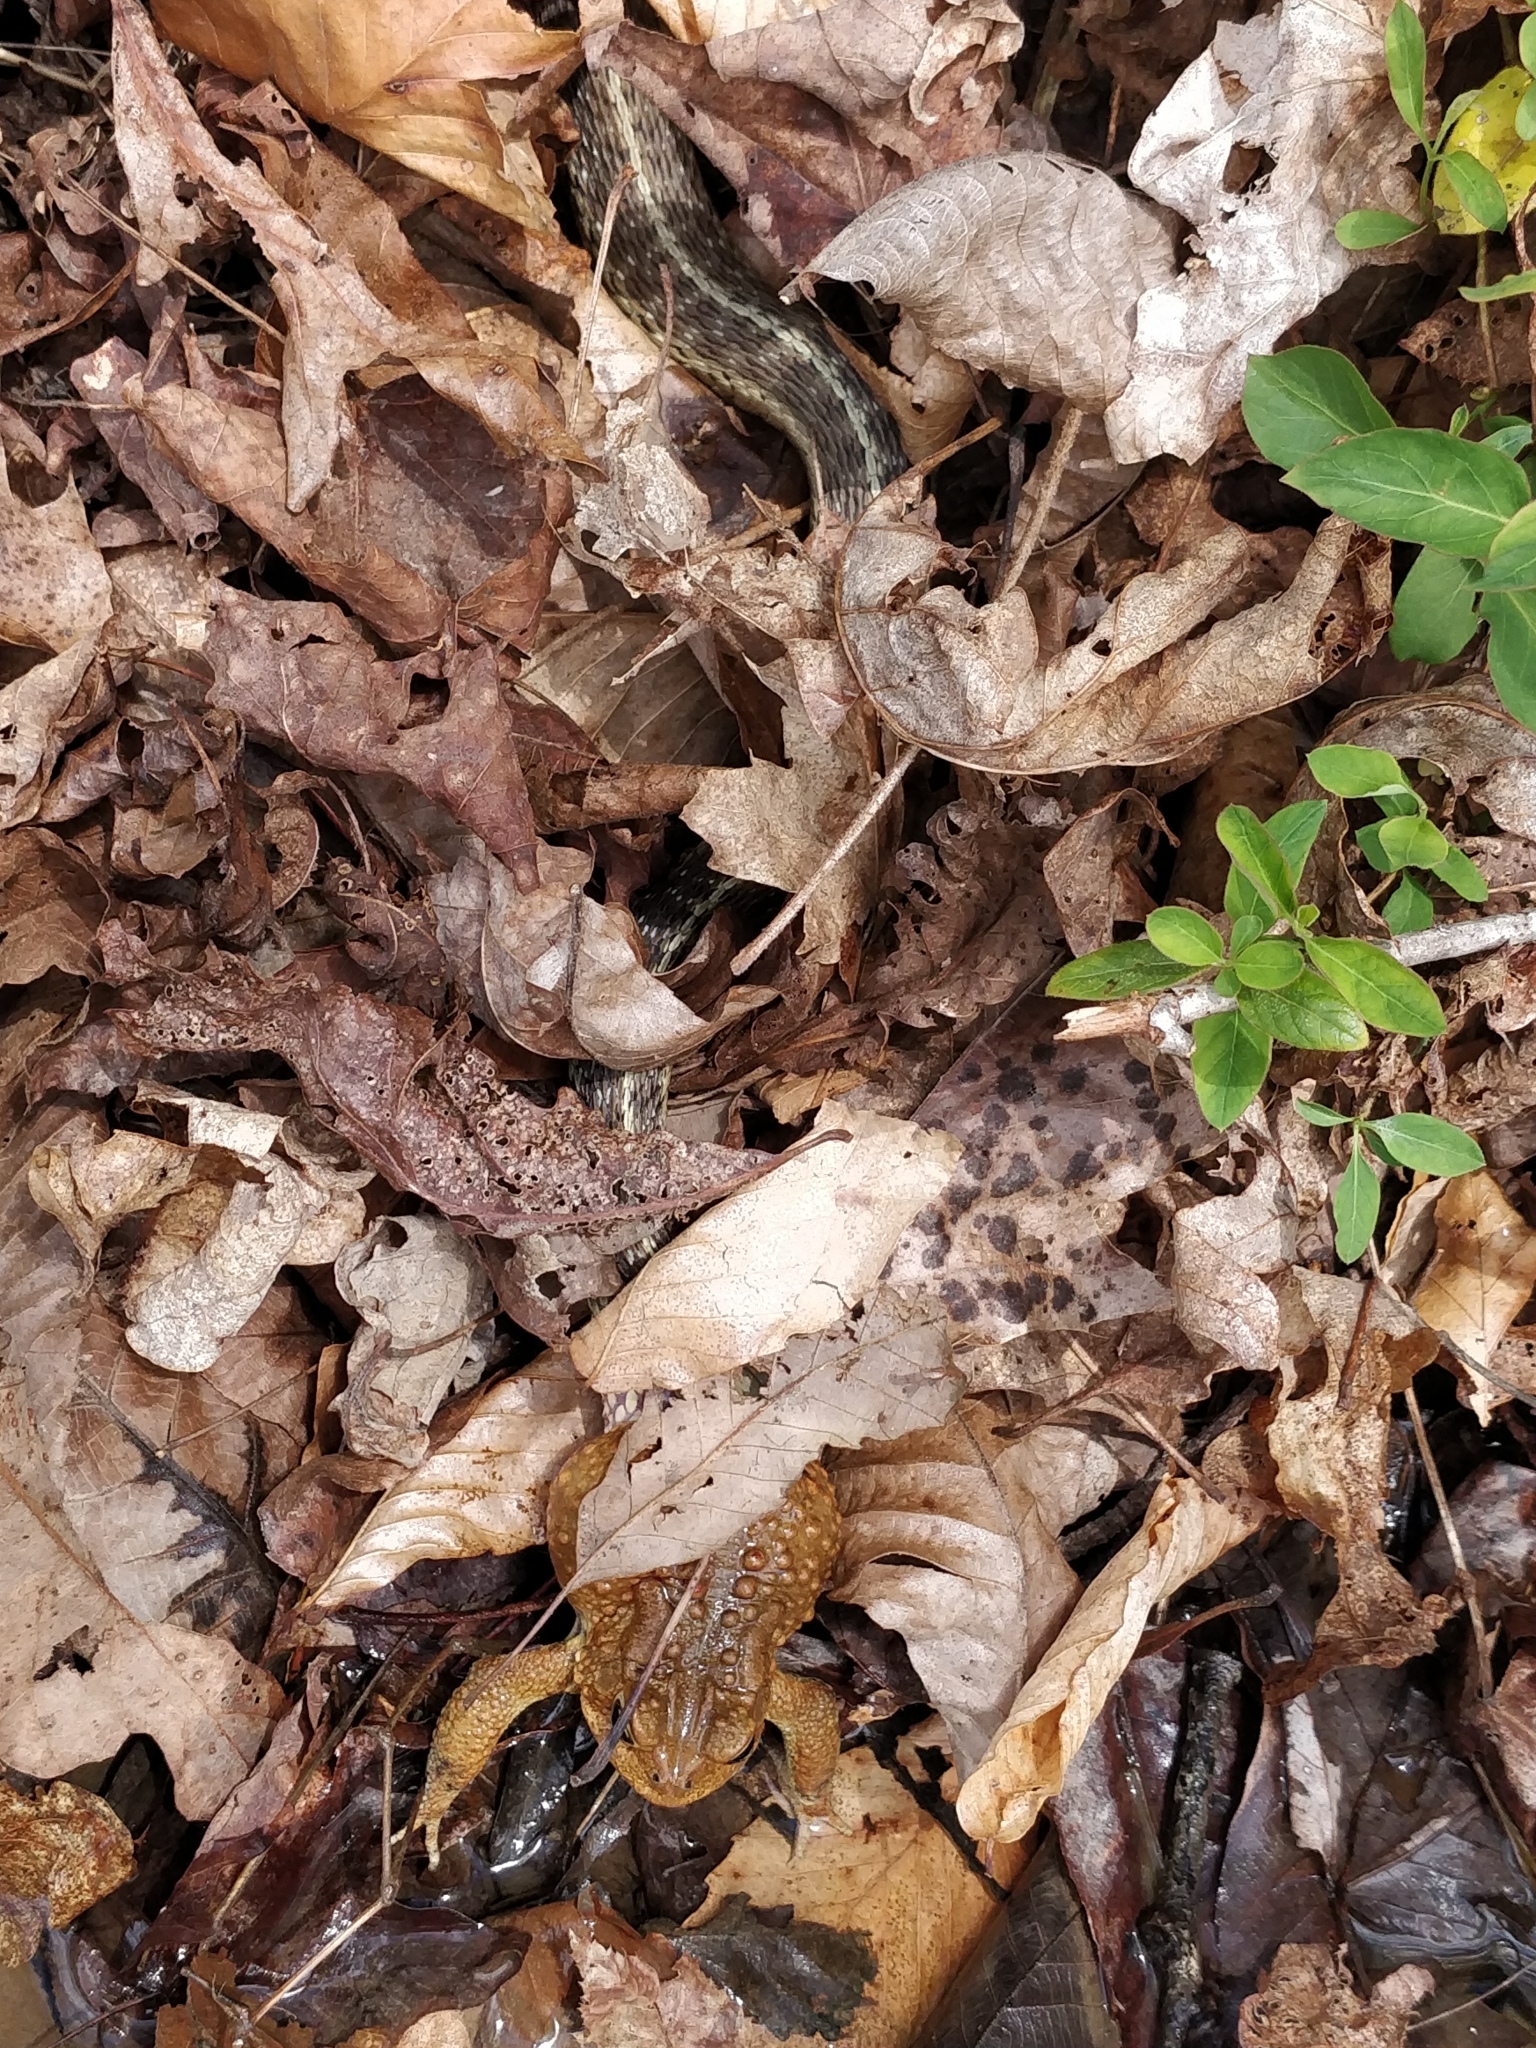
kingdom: Animalia
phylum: Chordata
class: Amphibia
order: Anura
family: Bufonidae
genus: Anaxyrus
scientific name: Anaxyrus americanus
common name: American toad
